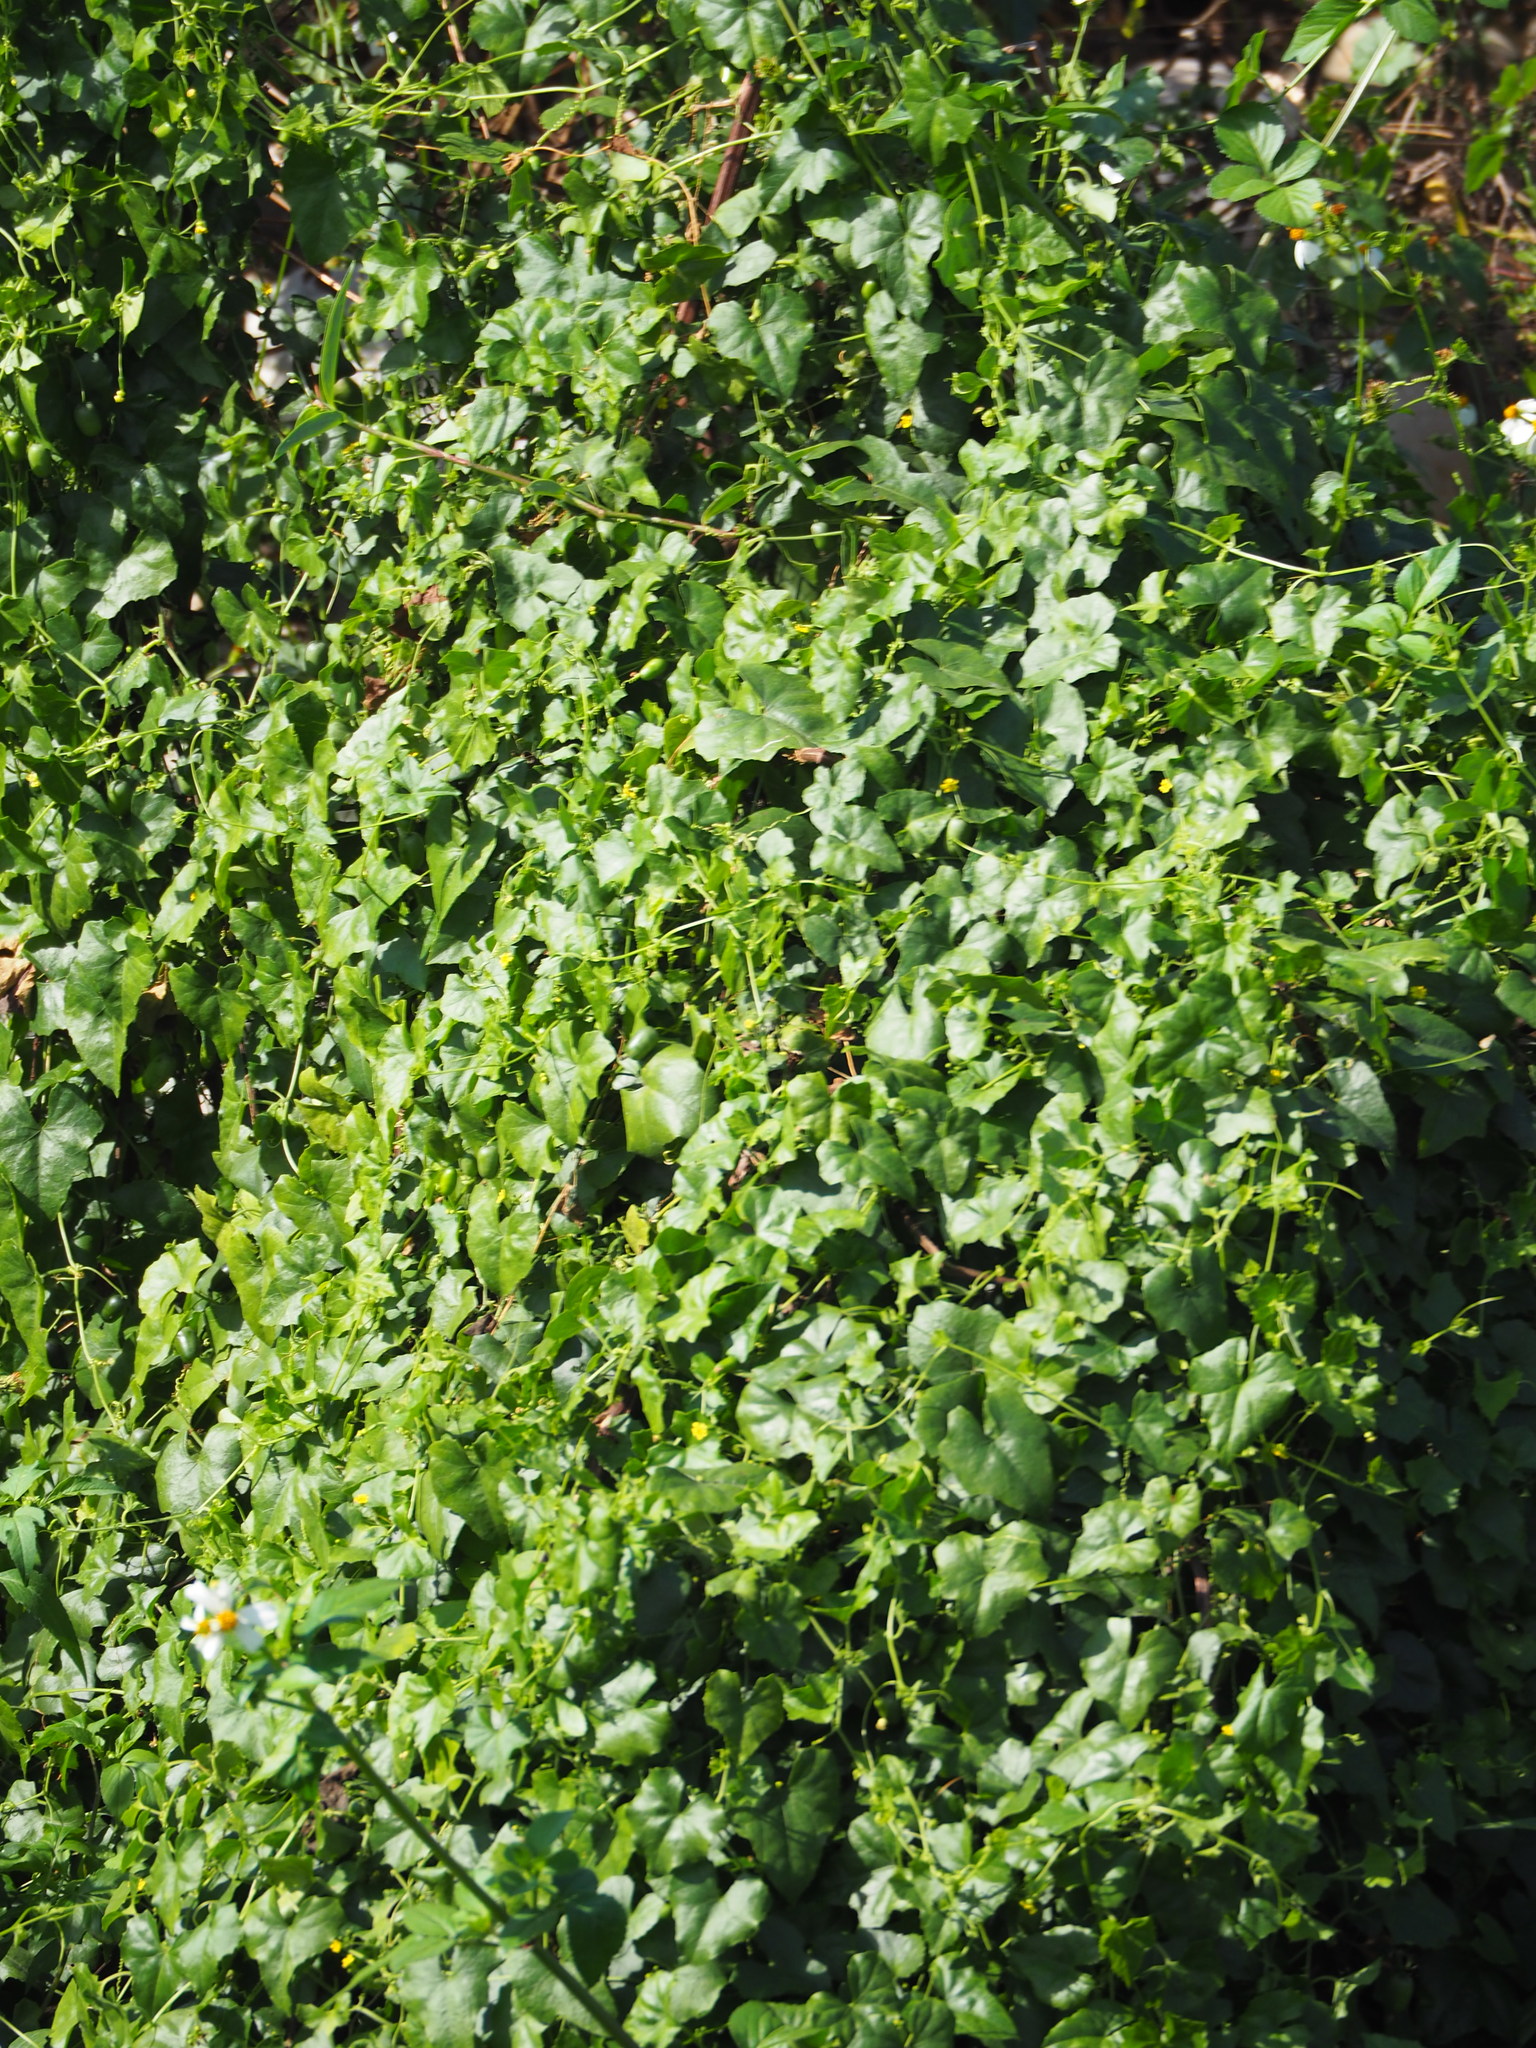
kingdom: Plantae
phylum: Tracheophyta
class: Magnoliopsida
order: Cucurbitales
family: Cucurbitaceae
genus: Melothria
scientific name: Melothria pendula
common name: Creeping-cucumber
